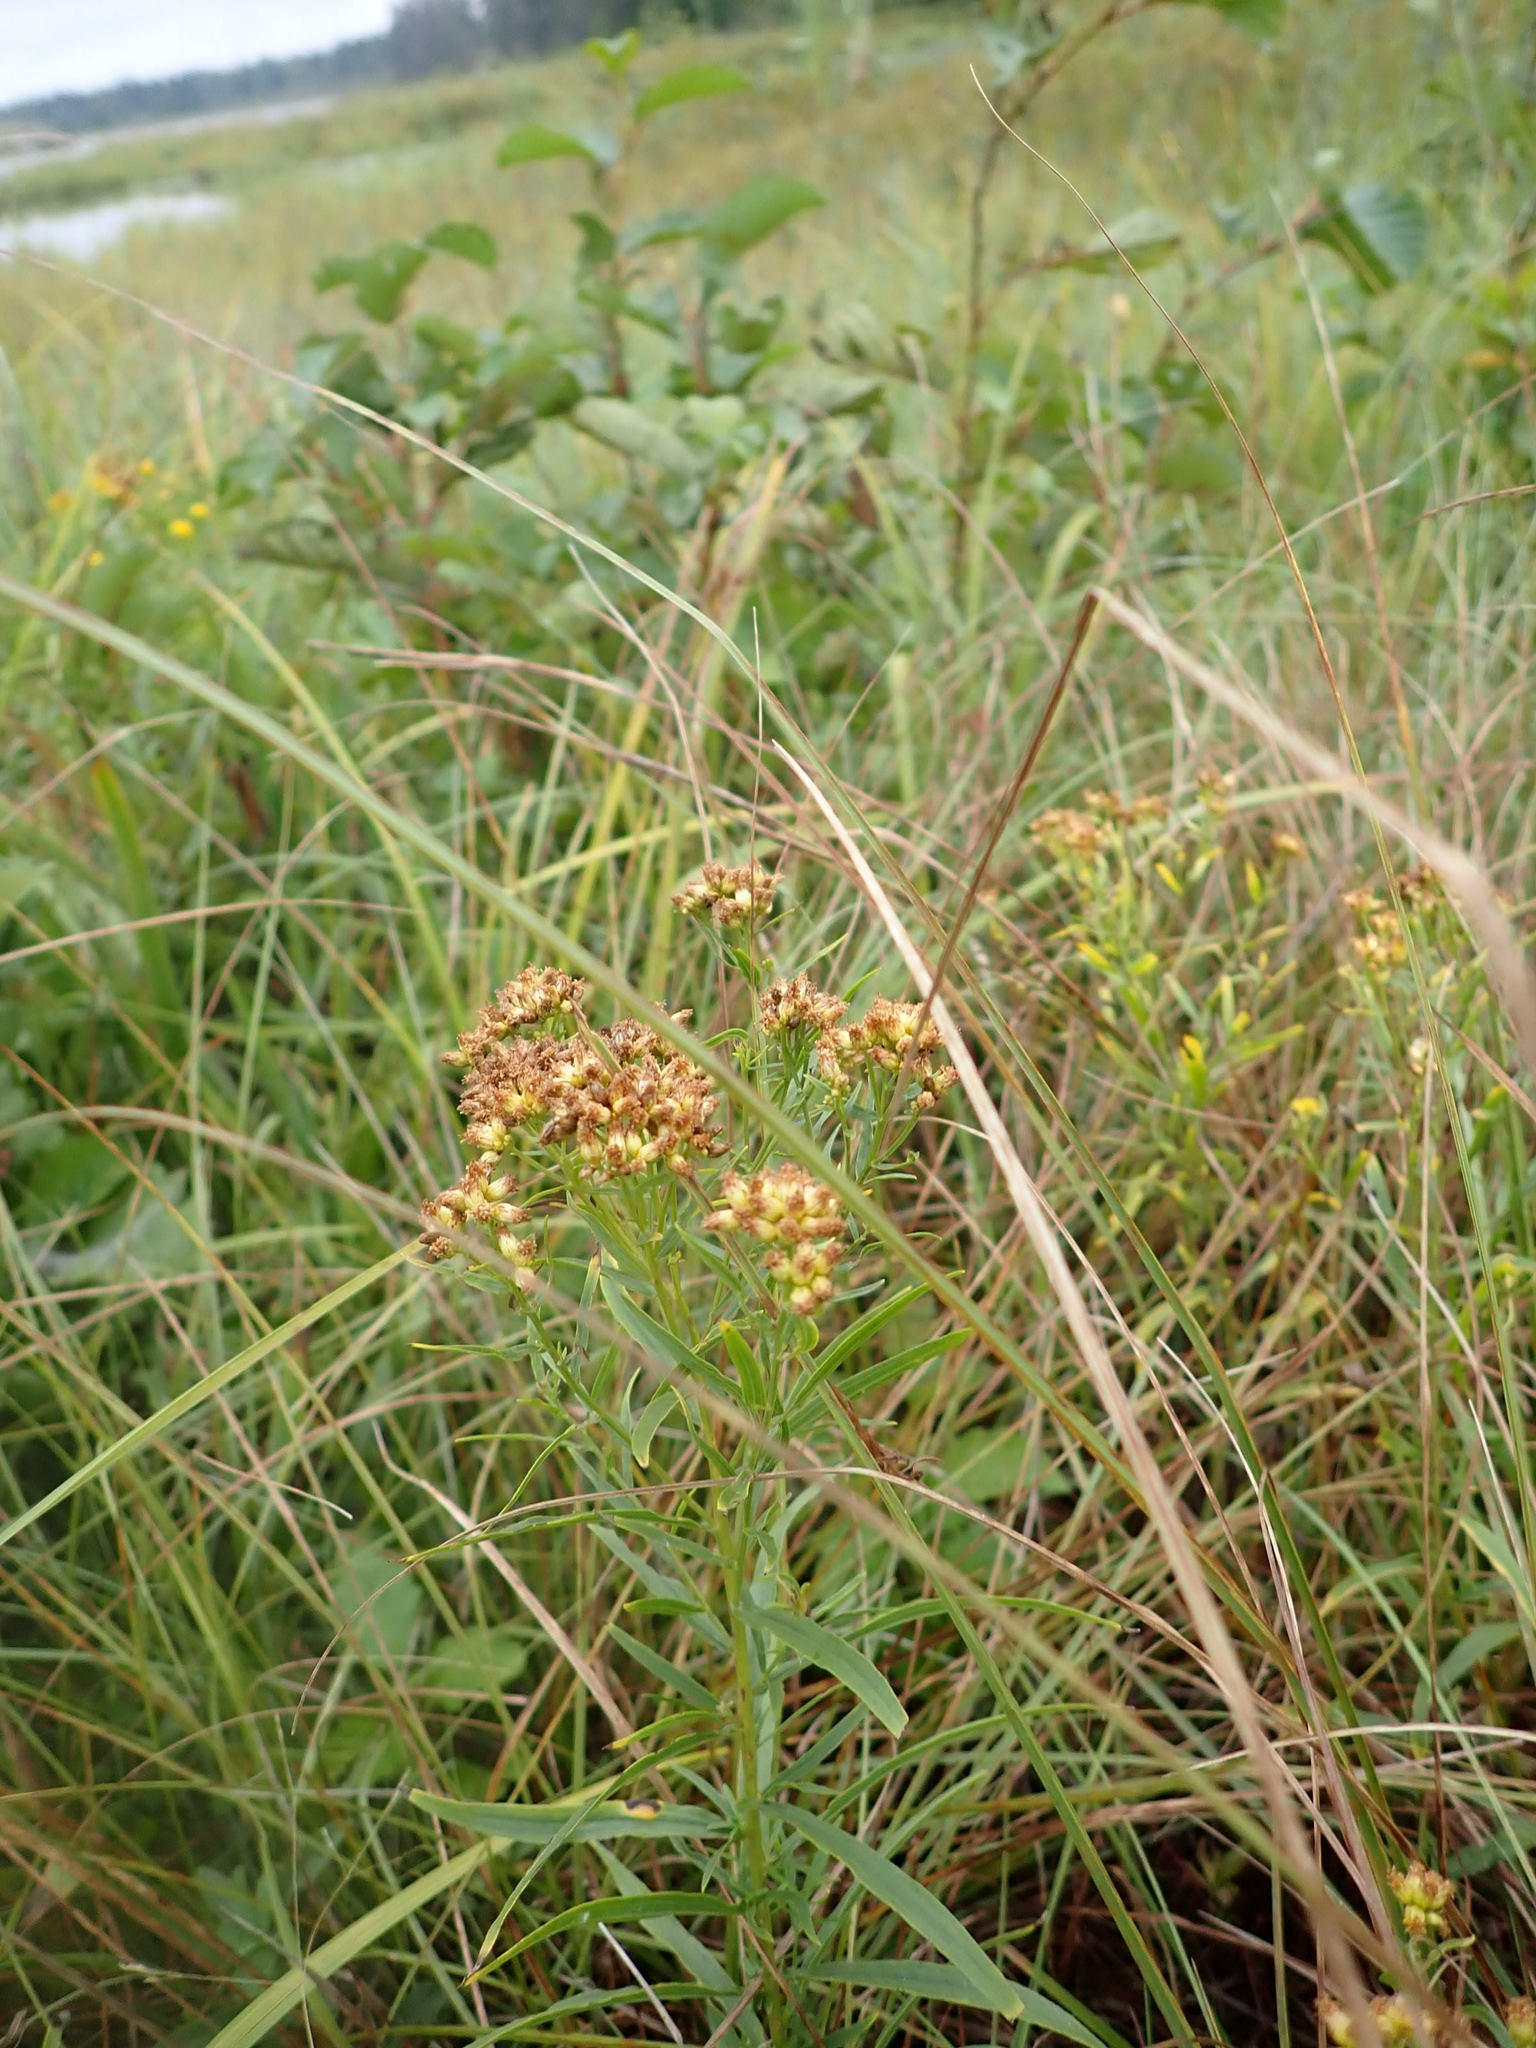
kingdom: Plantae
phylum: Tracheophyta
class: Magnoliopsida
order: Asterales
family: Asteraceae
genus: Euthamia
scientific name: Euthamia graminifolia
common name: Common goldentop
